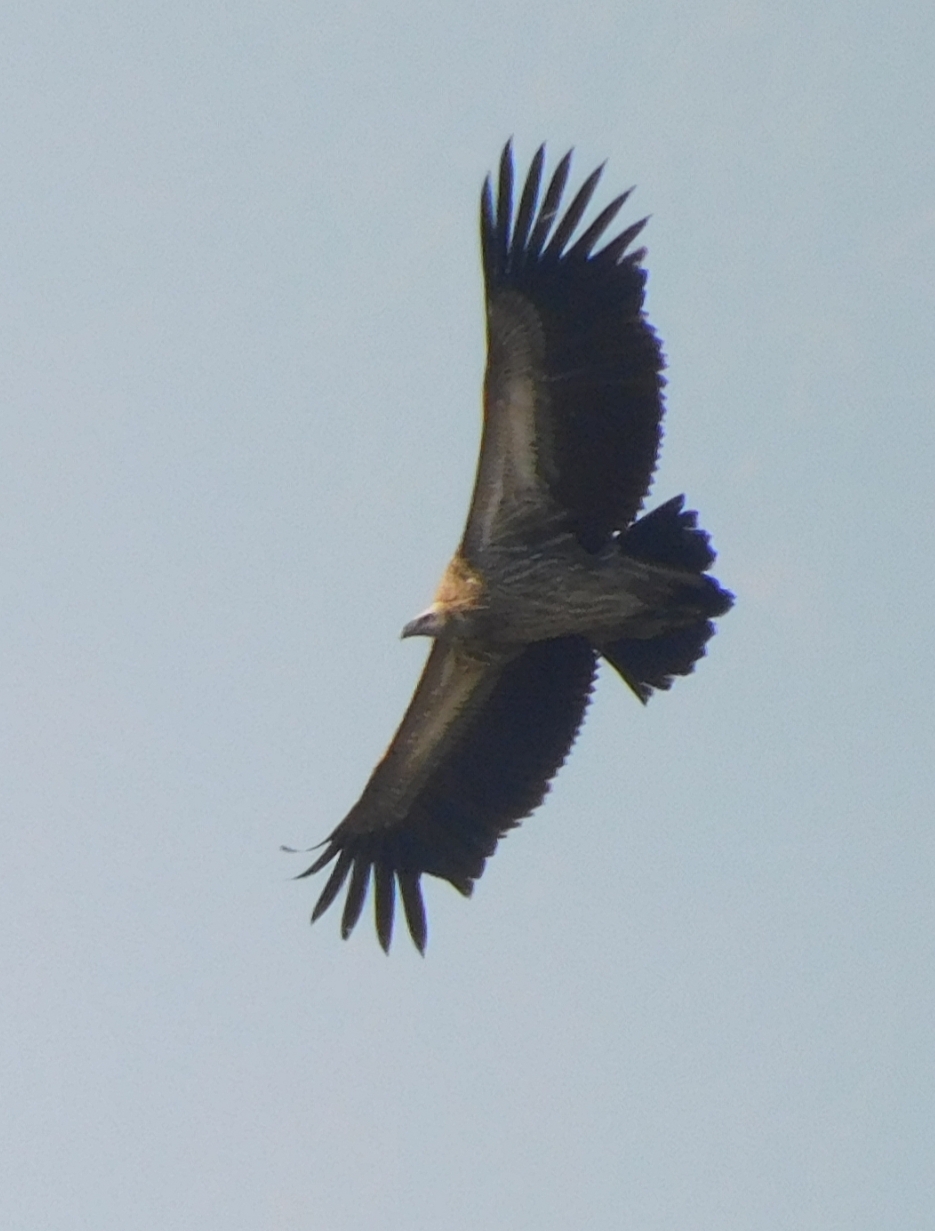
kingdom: Animalia
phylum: Chordata
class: Aves
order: Accipitriformes
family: Accipitridae
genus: Gyps
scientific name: Gyps himalayensis
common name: Himalayan griffon
